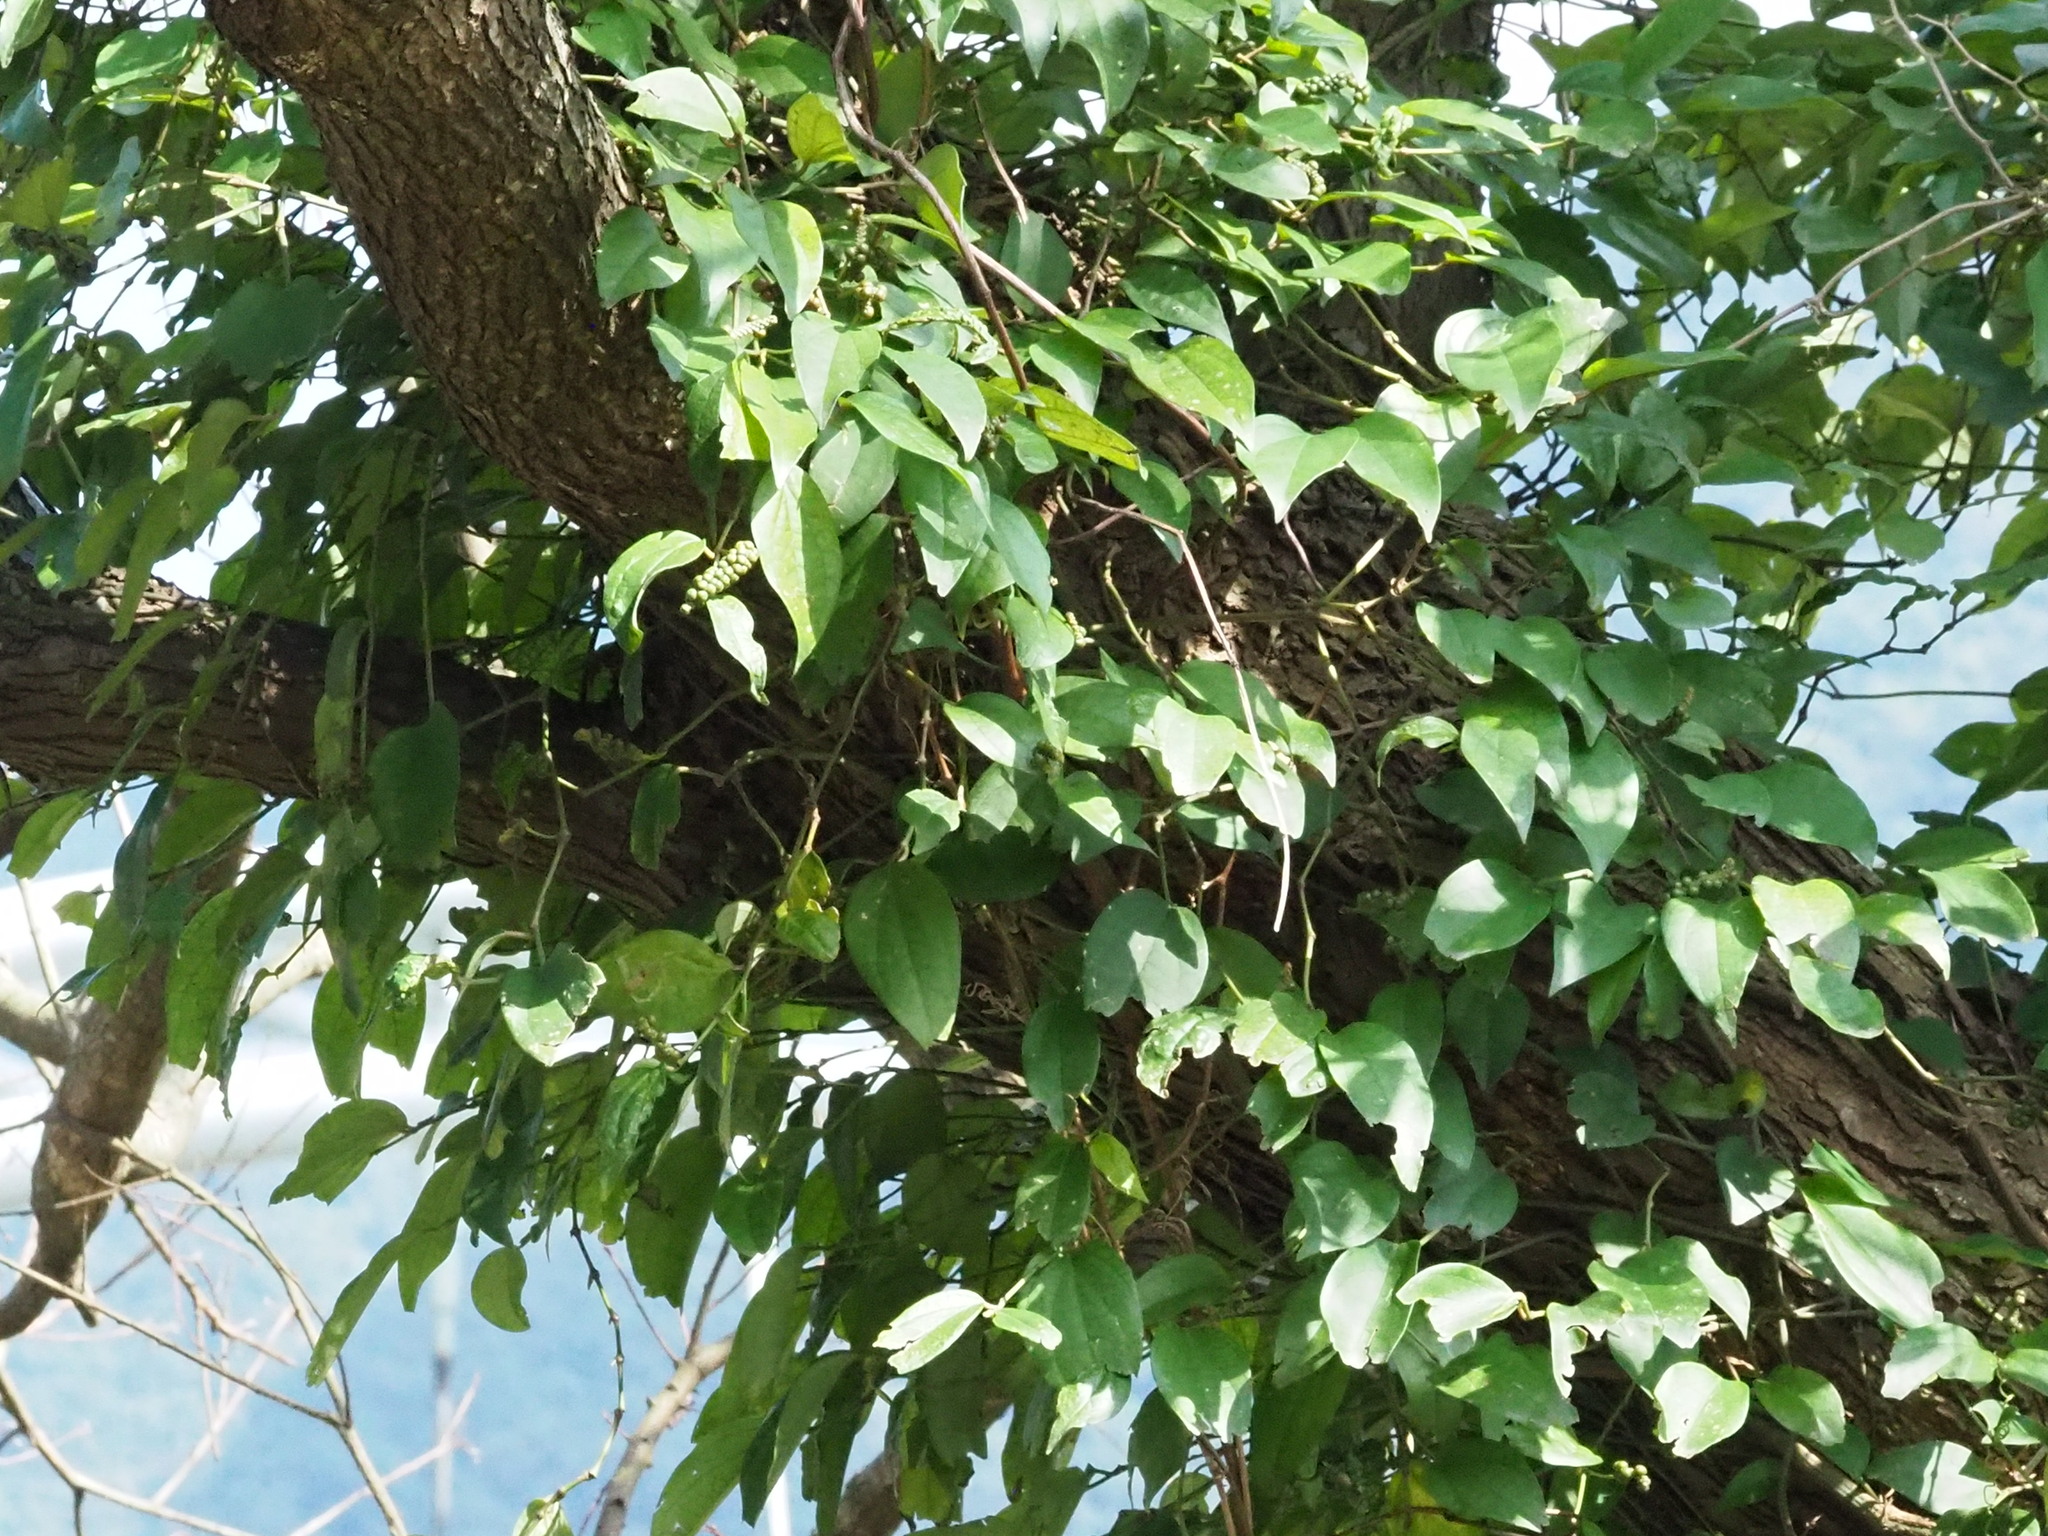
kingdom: Plantae
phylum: Tracheophyta
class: Magnoliopsida
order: Piperales
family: Piperaceae
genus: Piper
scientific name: Piper kadsura
